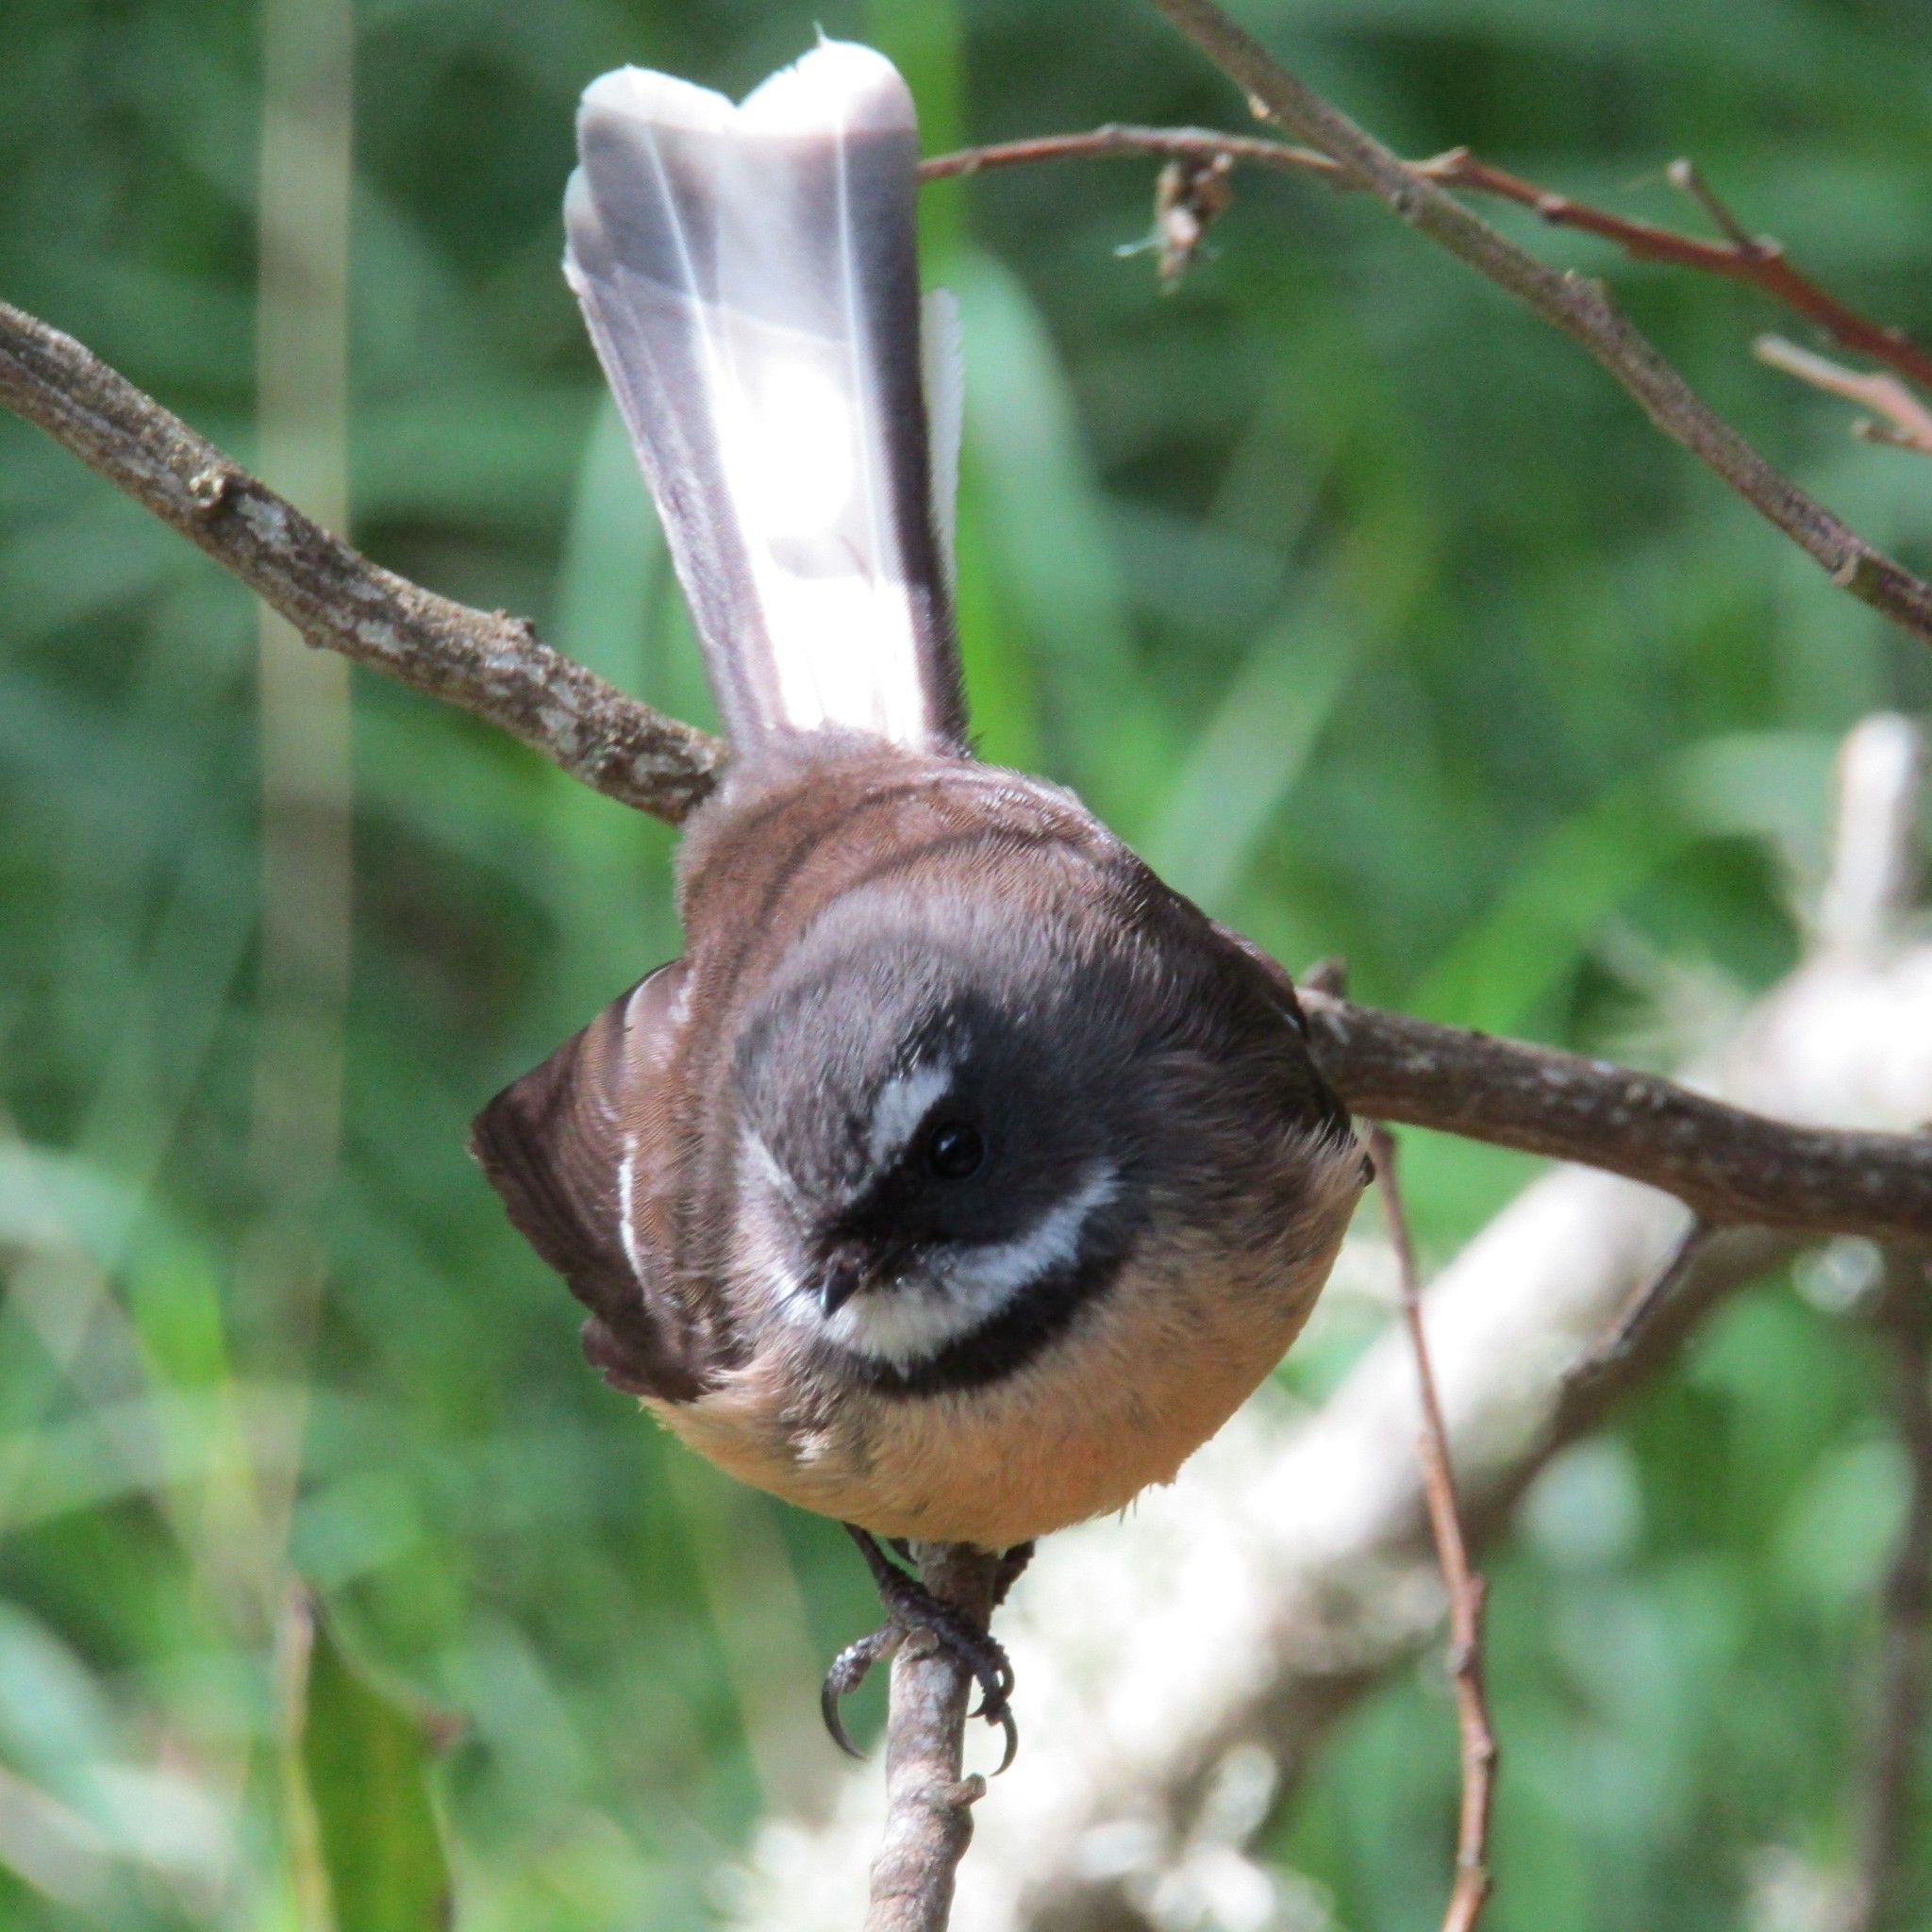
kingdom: Animalia
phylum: Chordata
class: Aves
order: Passeriformes
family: Rhipiduridae
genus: Rhipidura
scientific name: Rhipidura fuliginosa
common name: New zealand fantail
